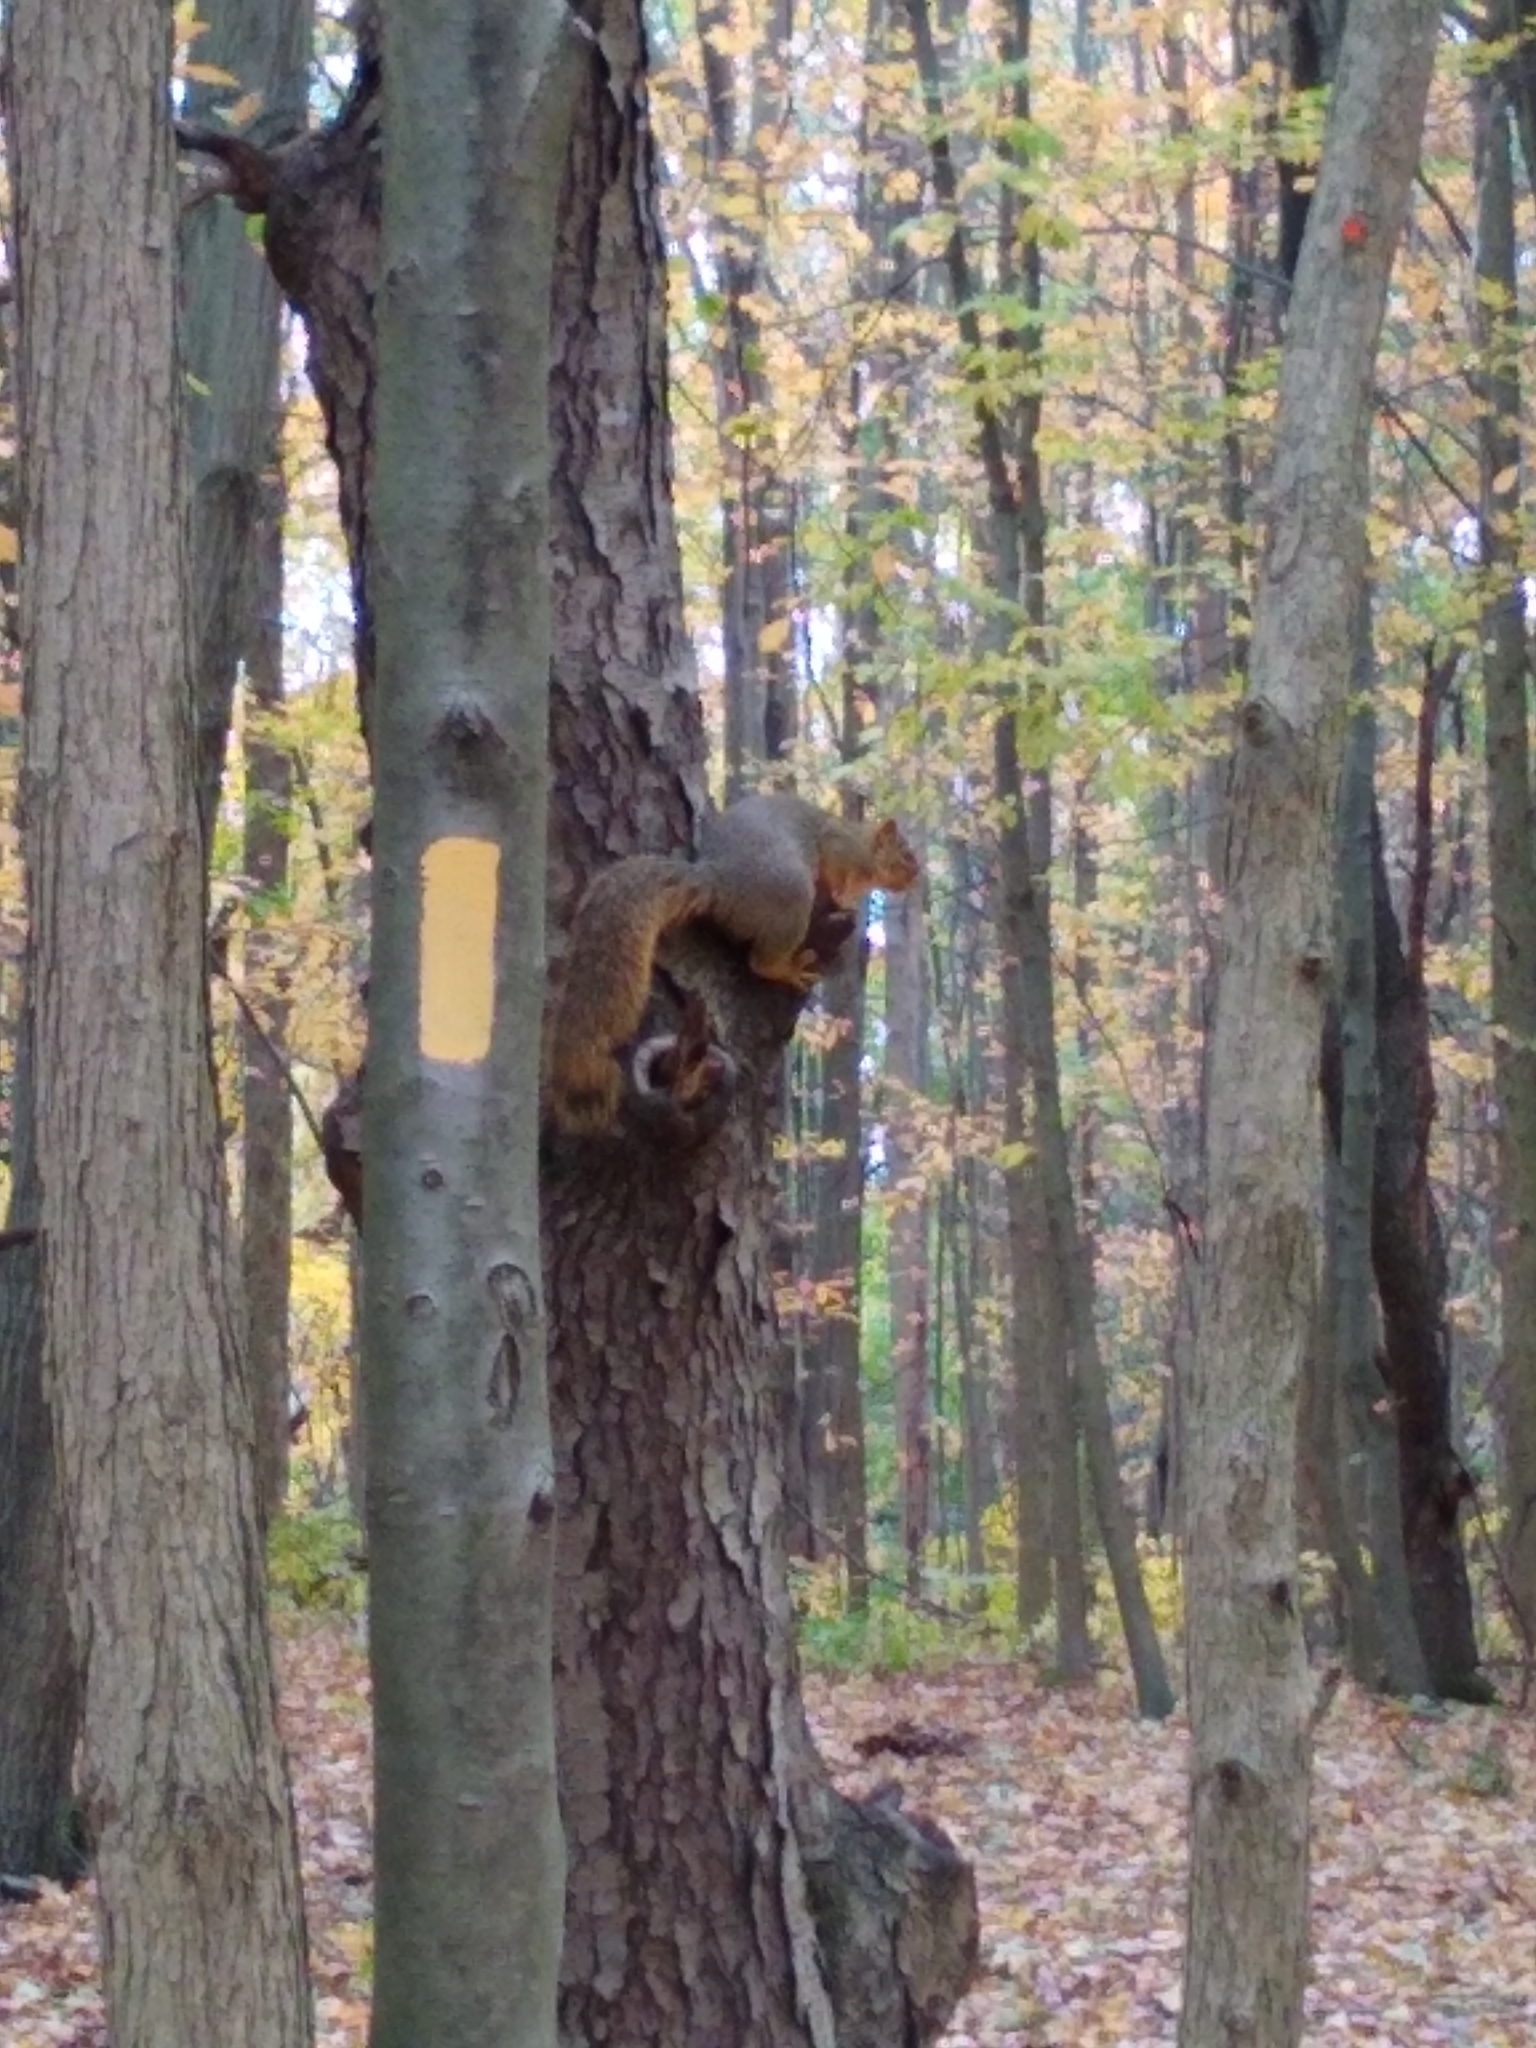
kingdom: Animalia
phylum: Chordata
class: Mammalia
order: Rodentia
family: Sciuridae
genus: Sciurus
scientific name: Sciurus niger
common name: Fox squirrel
